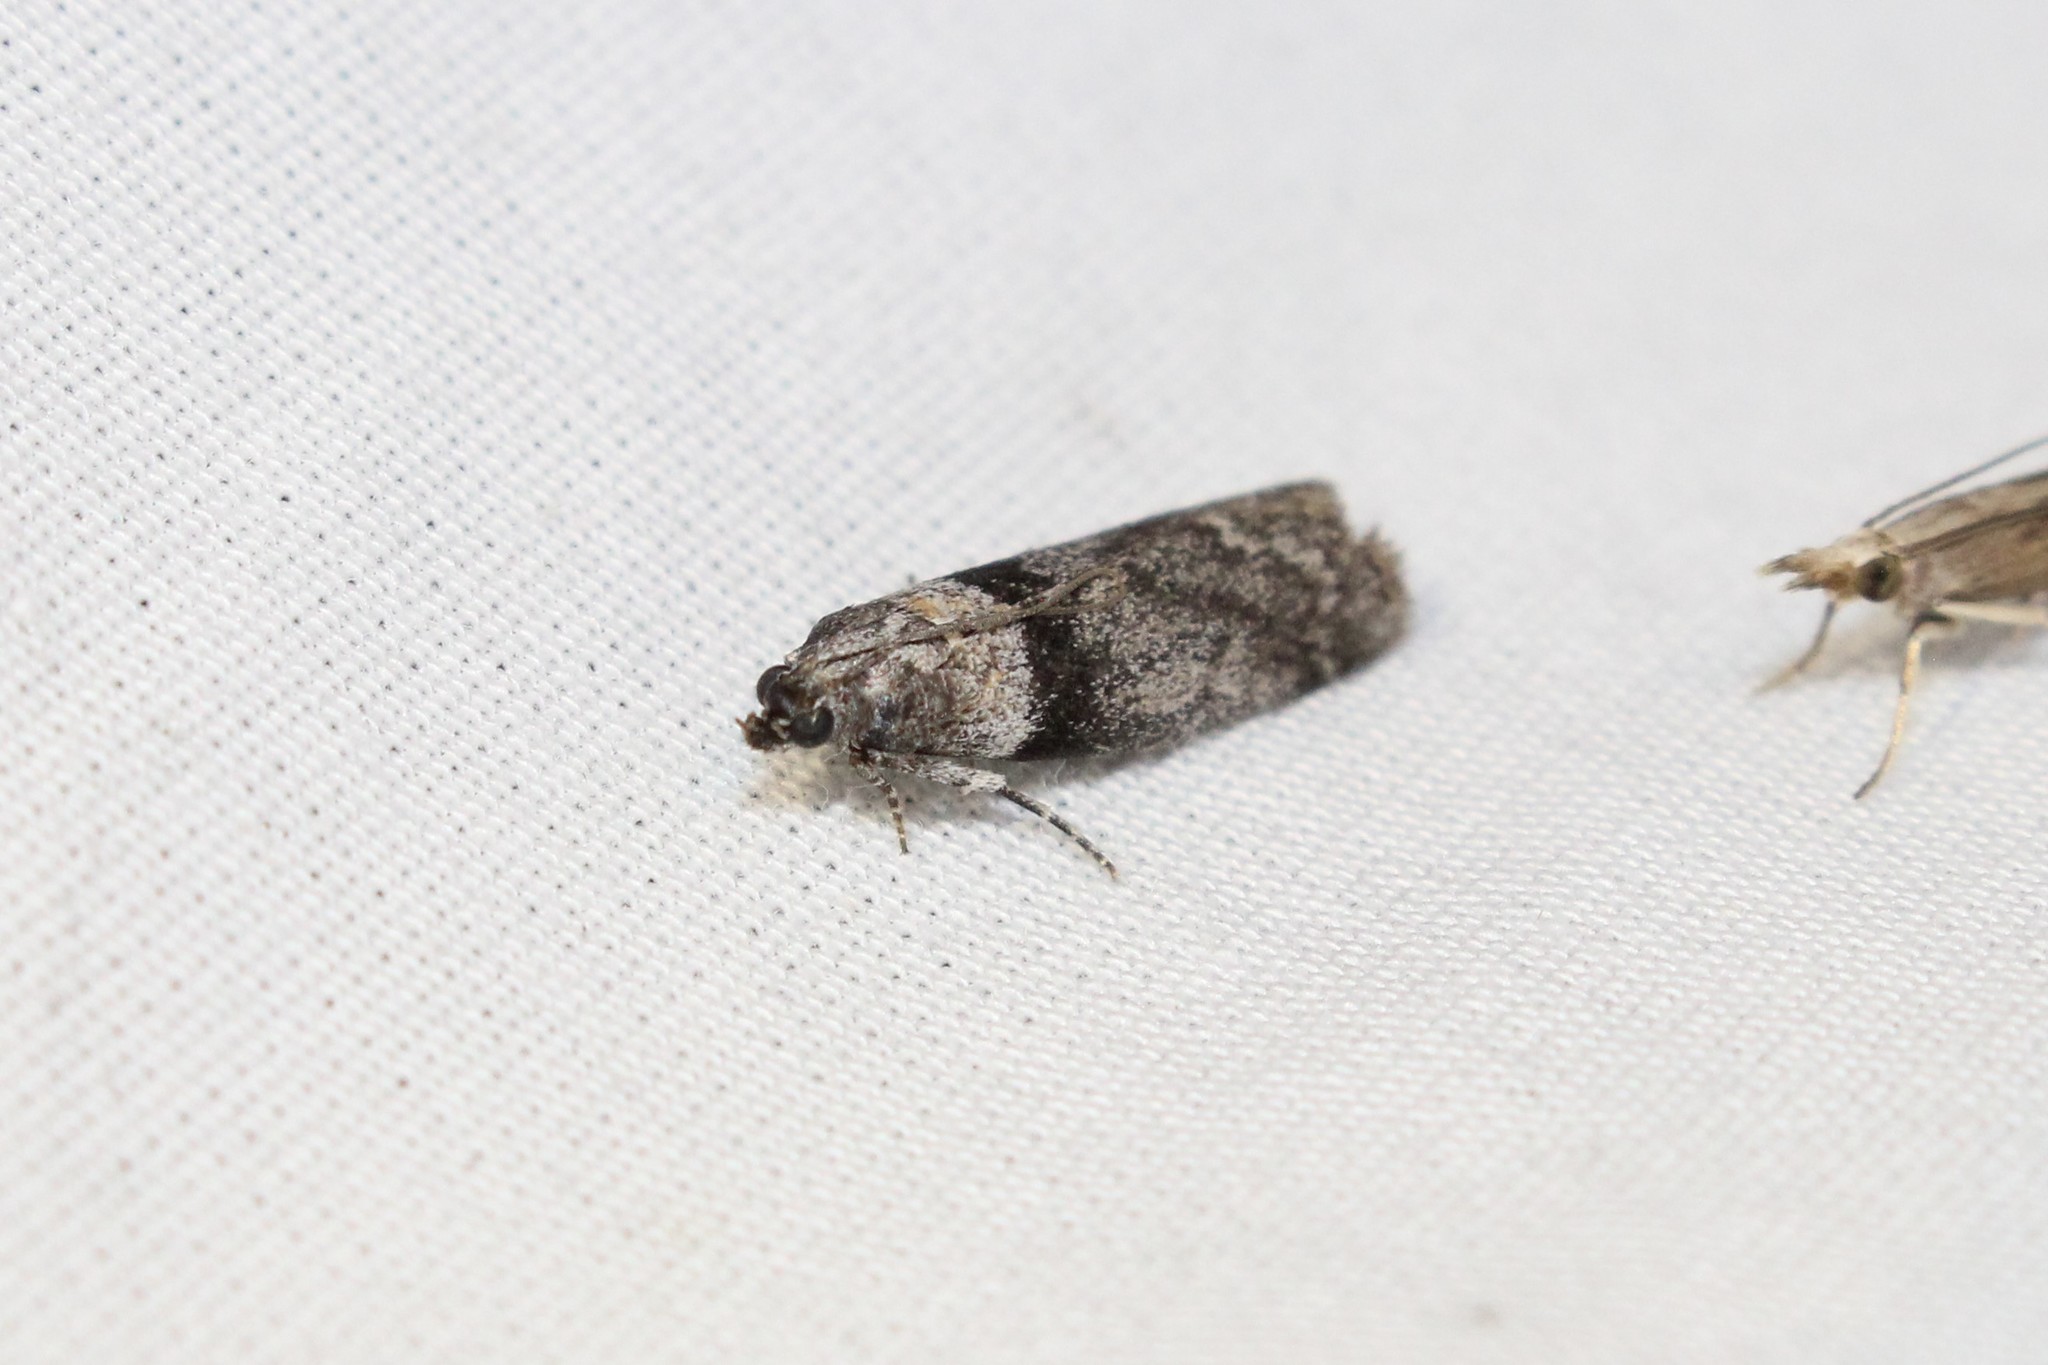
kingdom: Animalia
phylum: Arthropoda
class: Insecta
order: Lepidoptera
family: Pyralidae
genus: Meroptera
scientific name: Meroptera pravella
